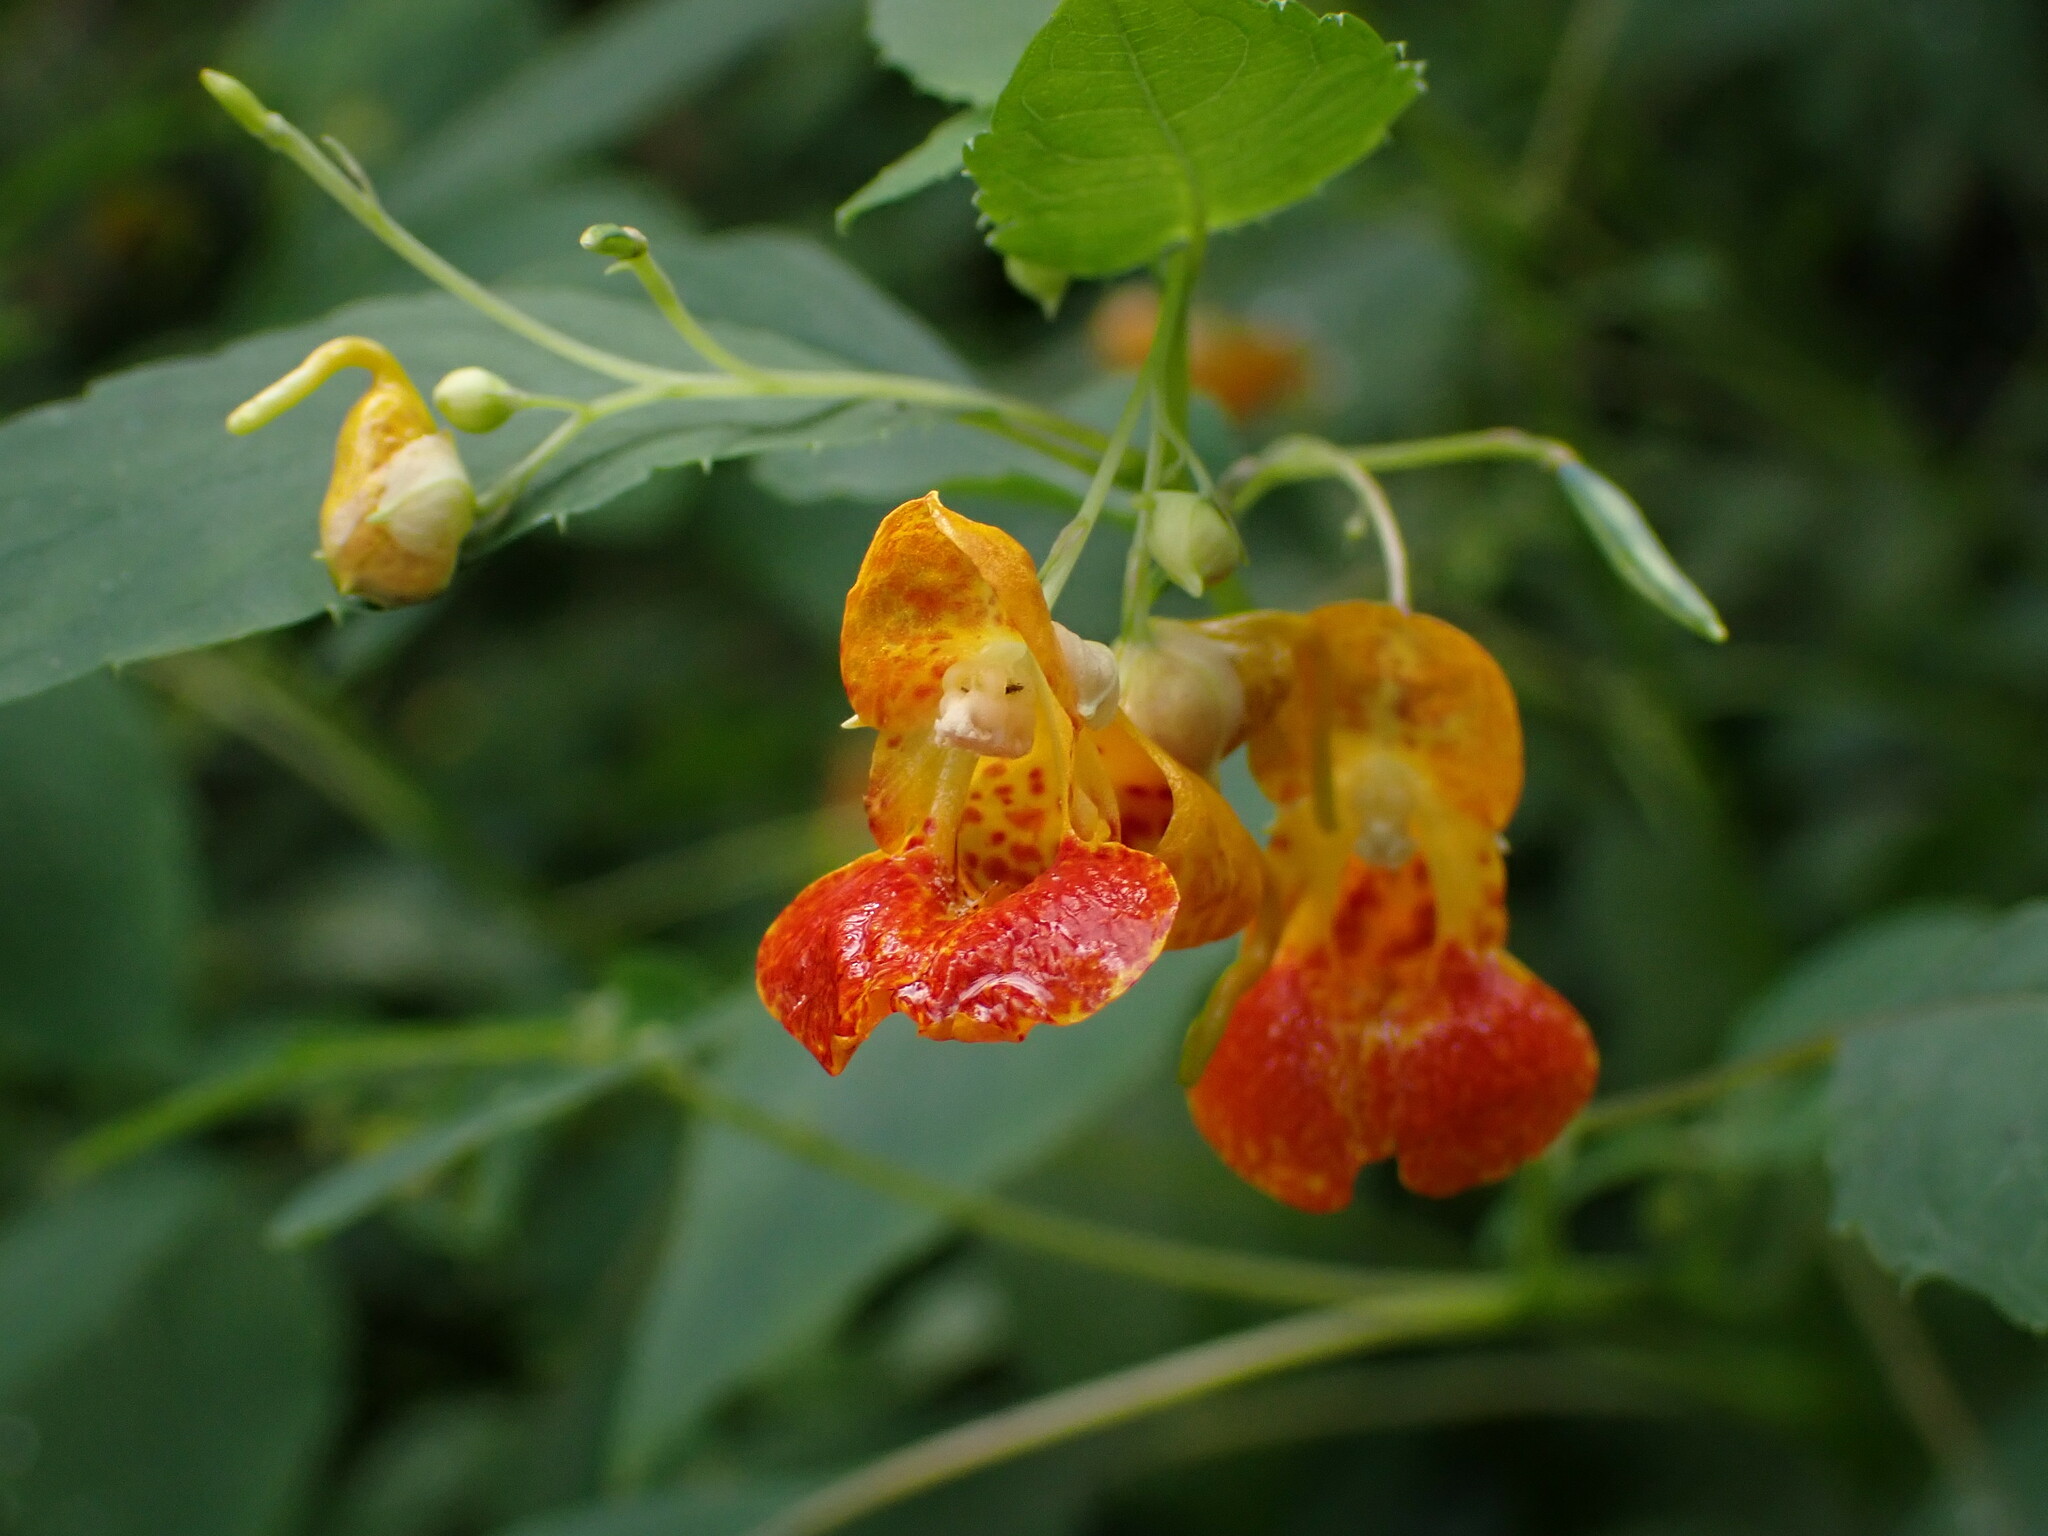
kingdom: Plantae
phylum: Tracheophyta
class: Magnoliopsida
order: Ericales
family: Balsaminaceae
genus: Impatiens
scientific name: Impatiens capensis
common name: Orange balsam
